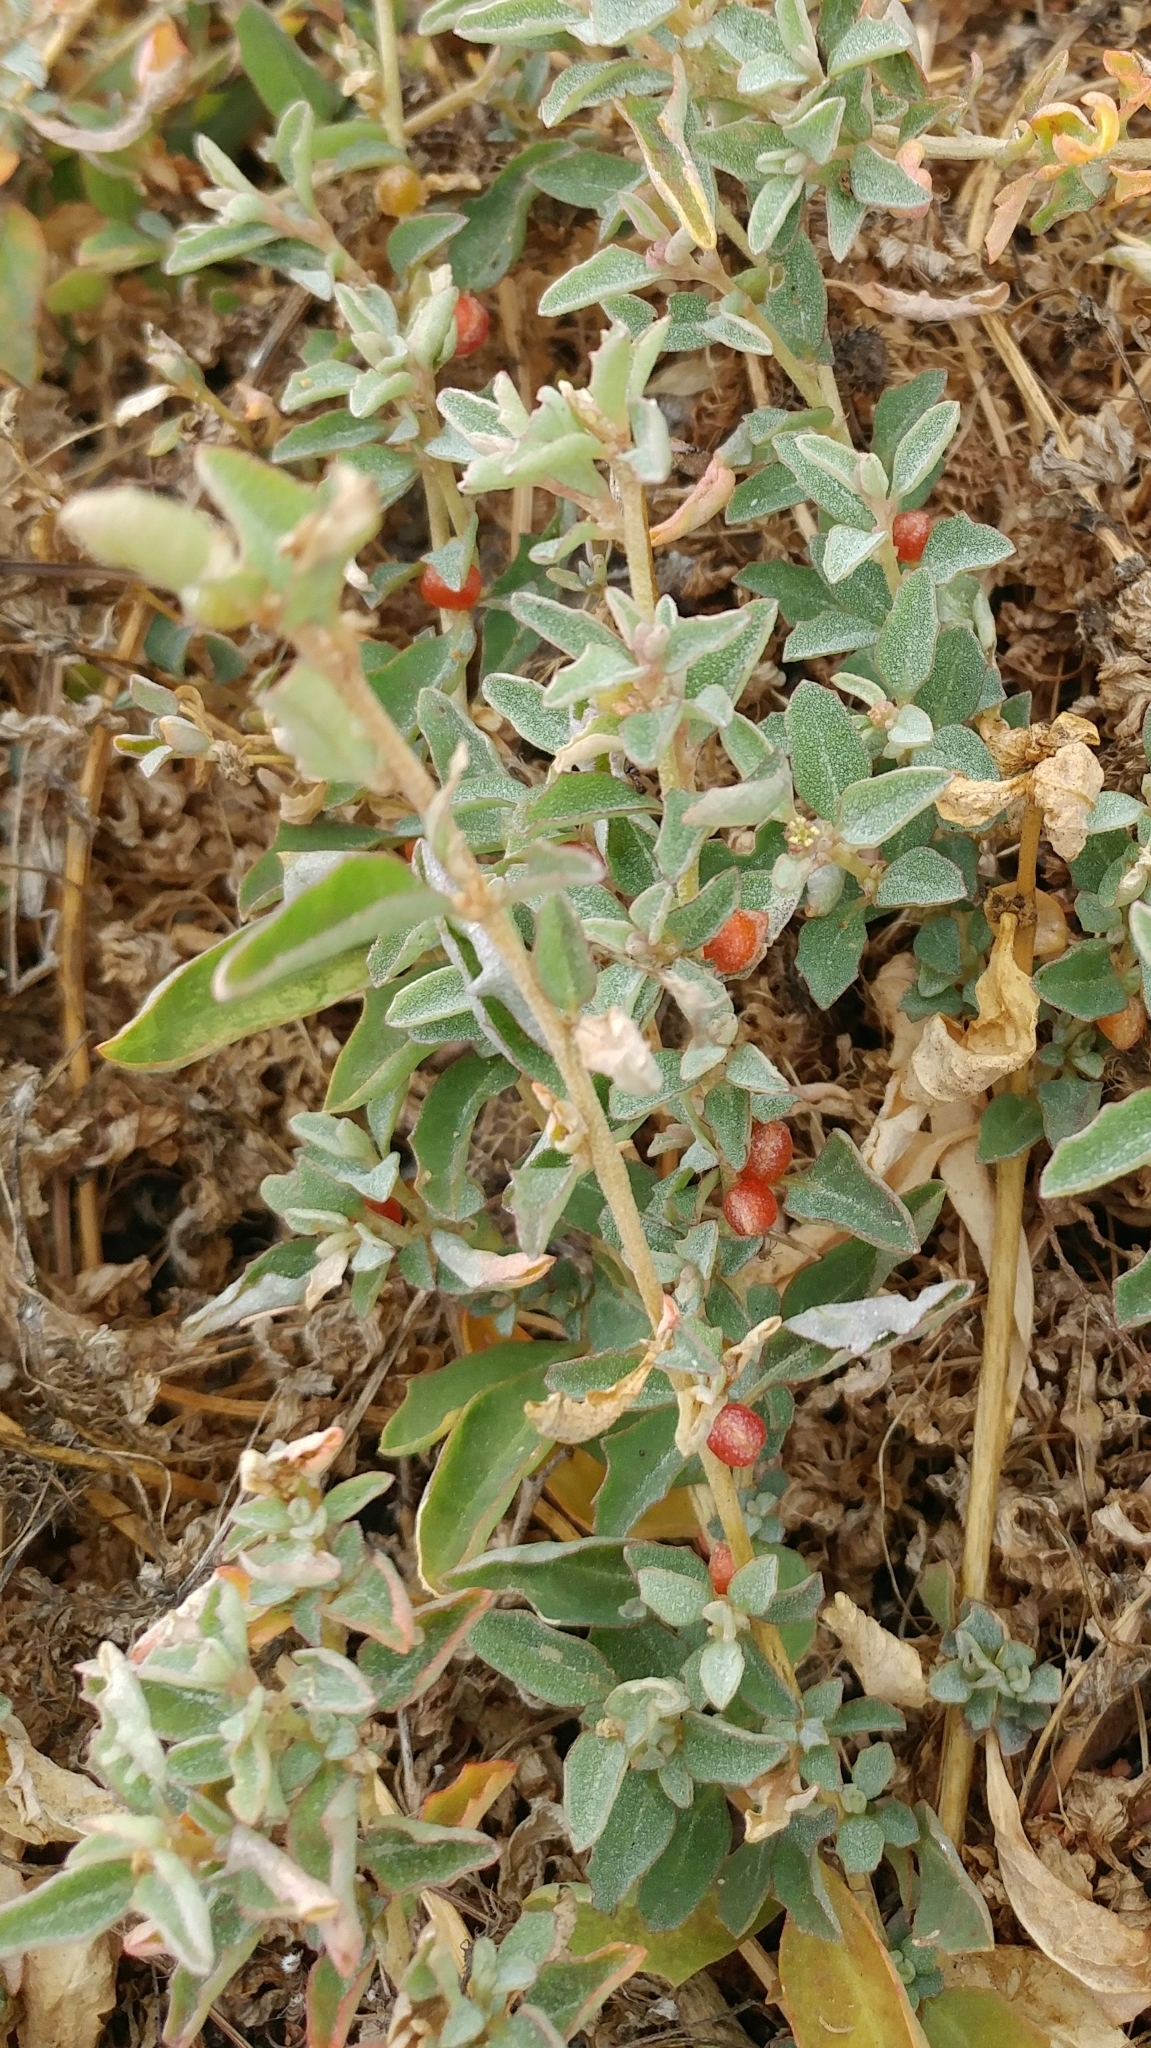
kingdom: Plantae
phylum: Tracheophyta
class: Magnoliopsida
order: Caryophyllales
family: Amaranthaceae
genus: Atriplex
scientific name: Atriplex semibaccata
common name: Australian saltbush
